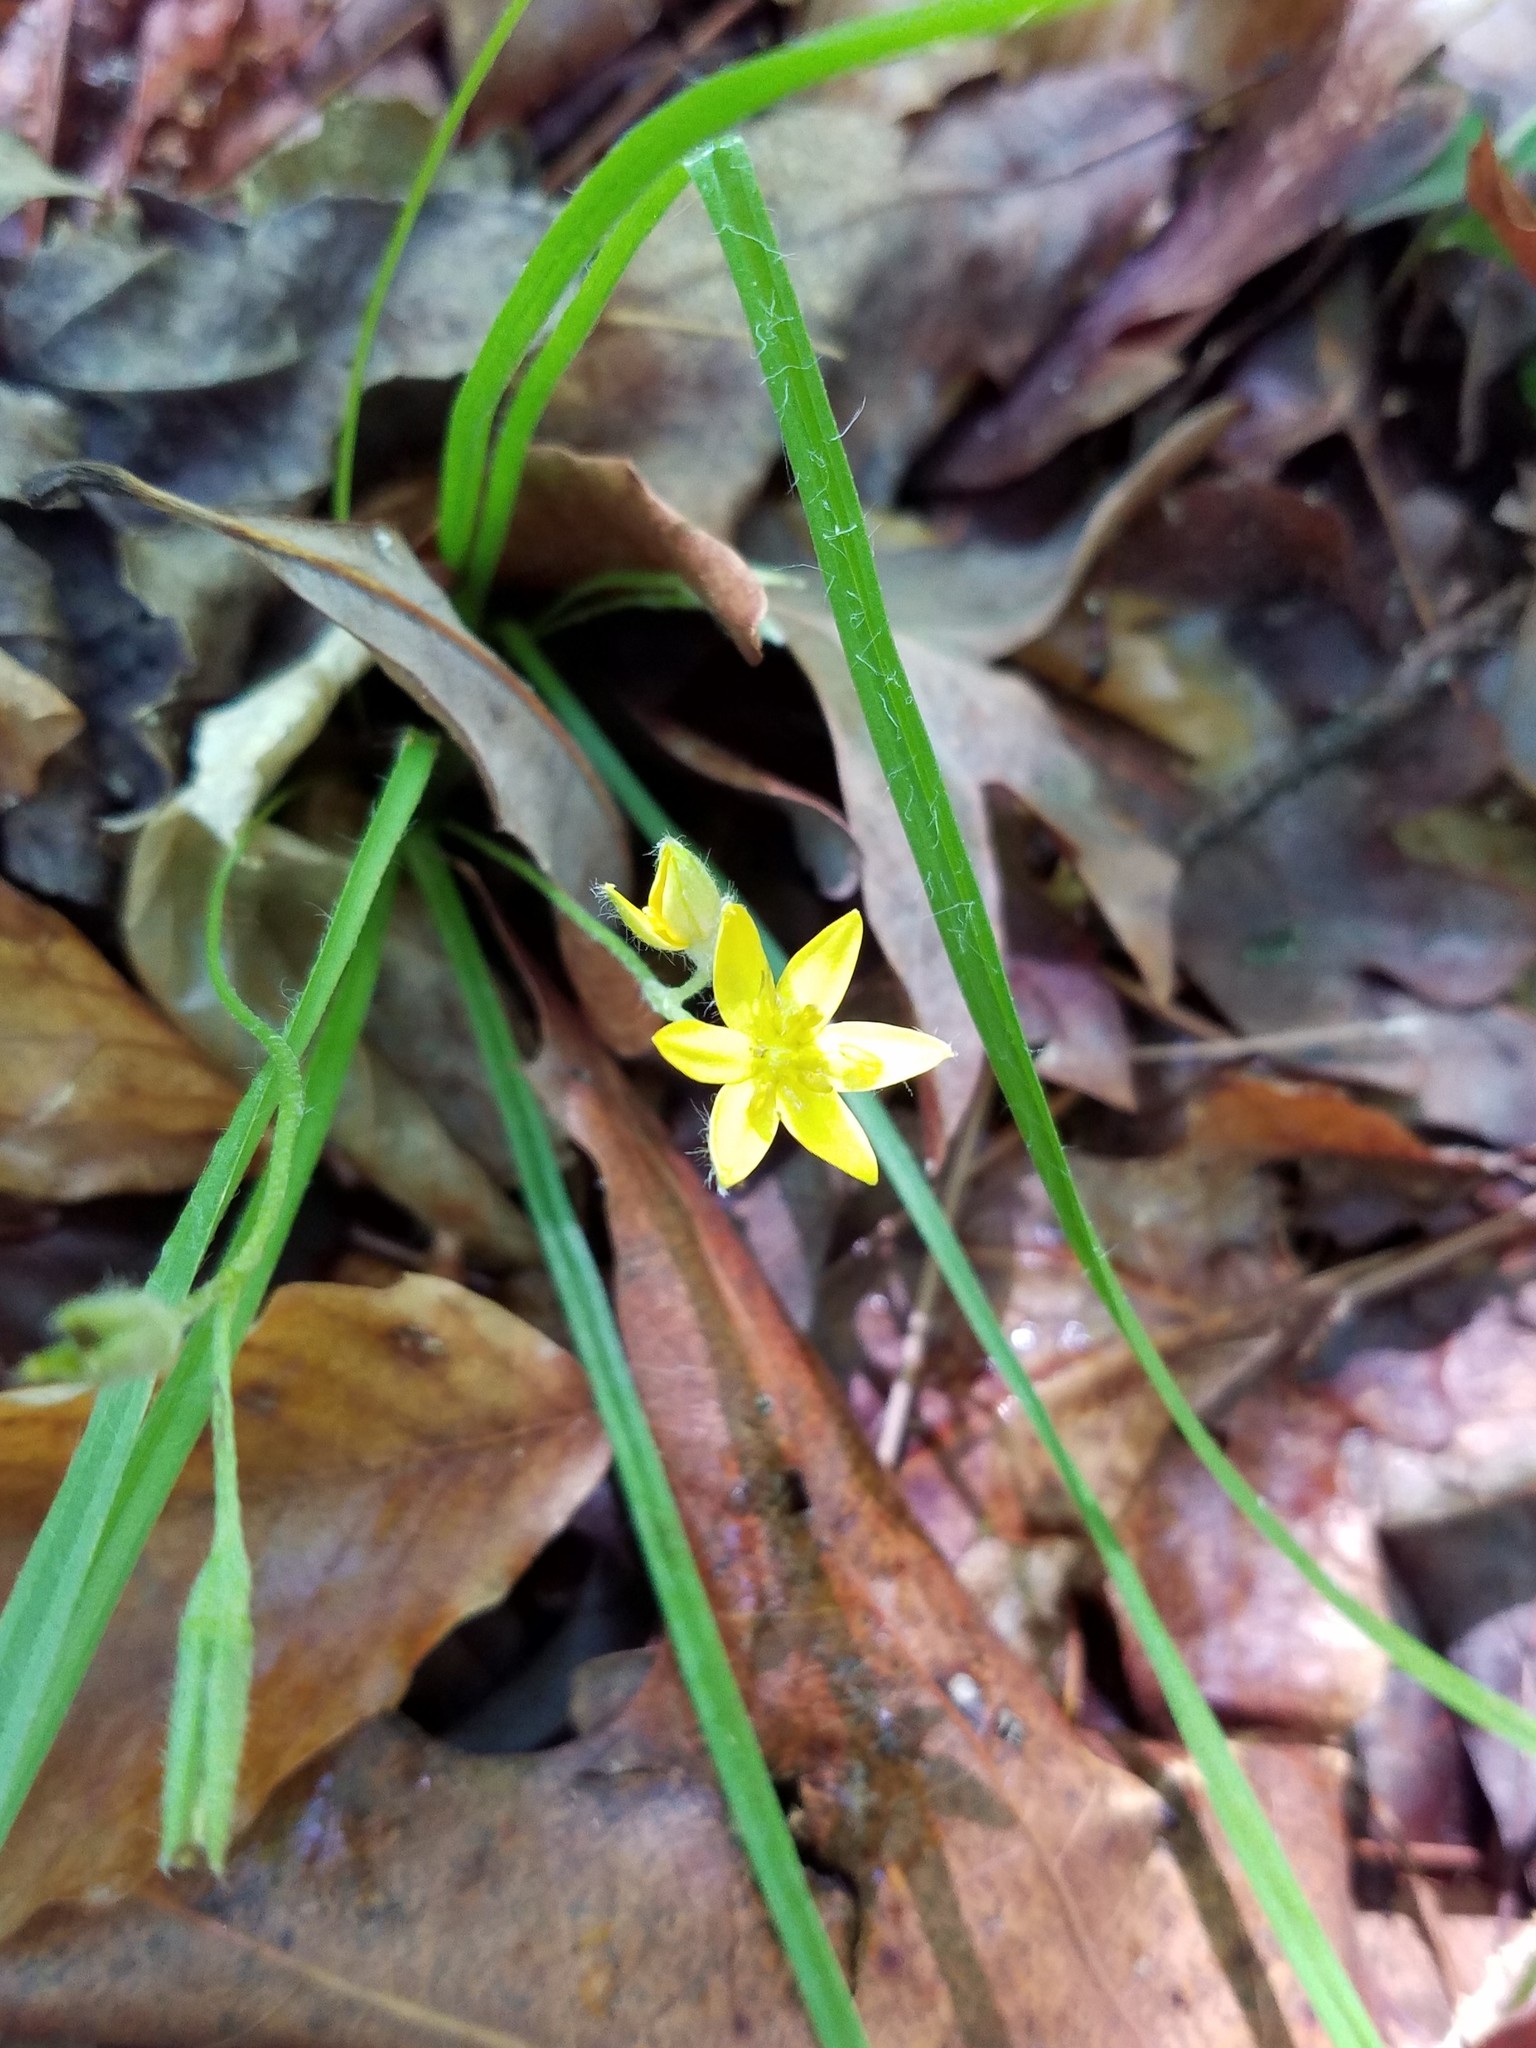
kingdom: Plantae
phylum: Tracheophyta
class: Liliopsida
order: Asparagales
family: Hypoxidaceae
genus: Hypoxis
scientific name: Hypoxis hirsuta
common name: Common goldstar
